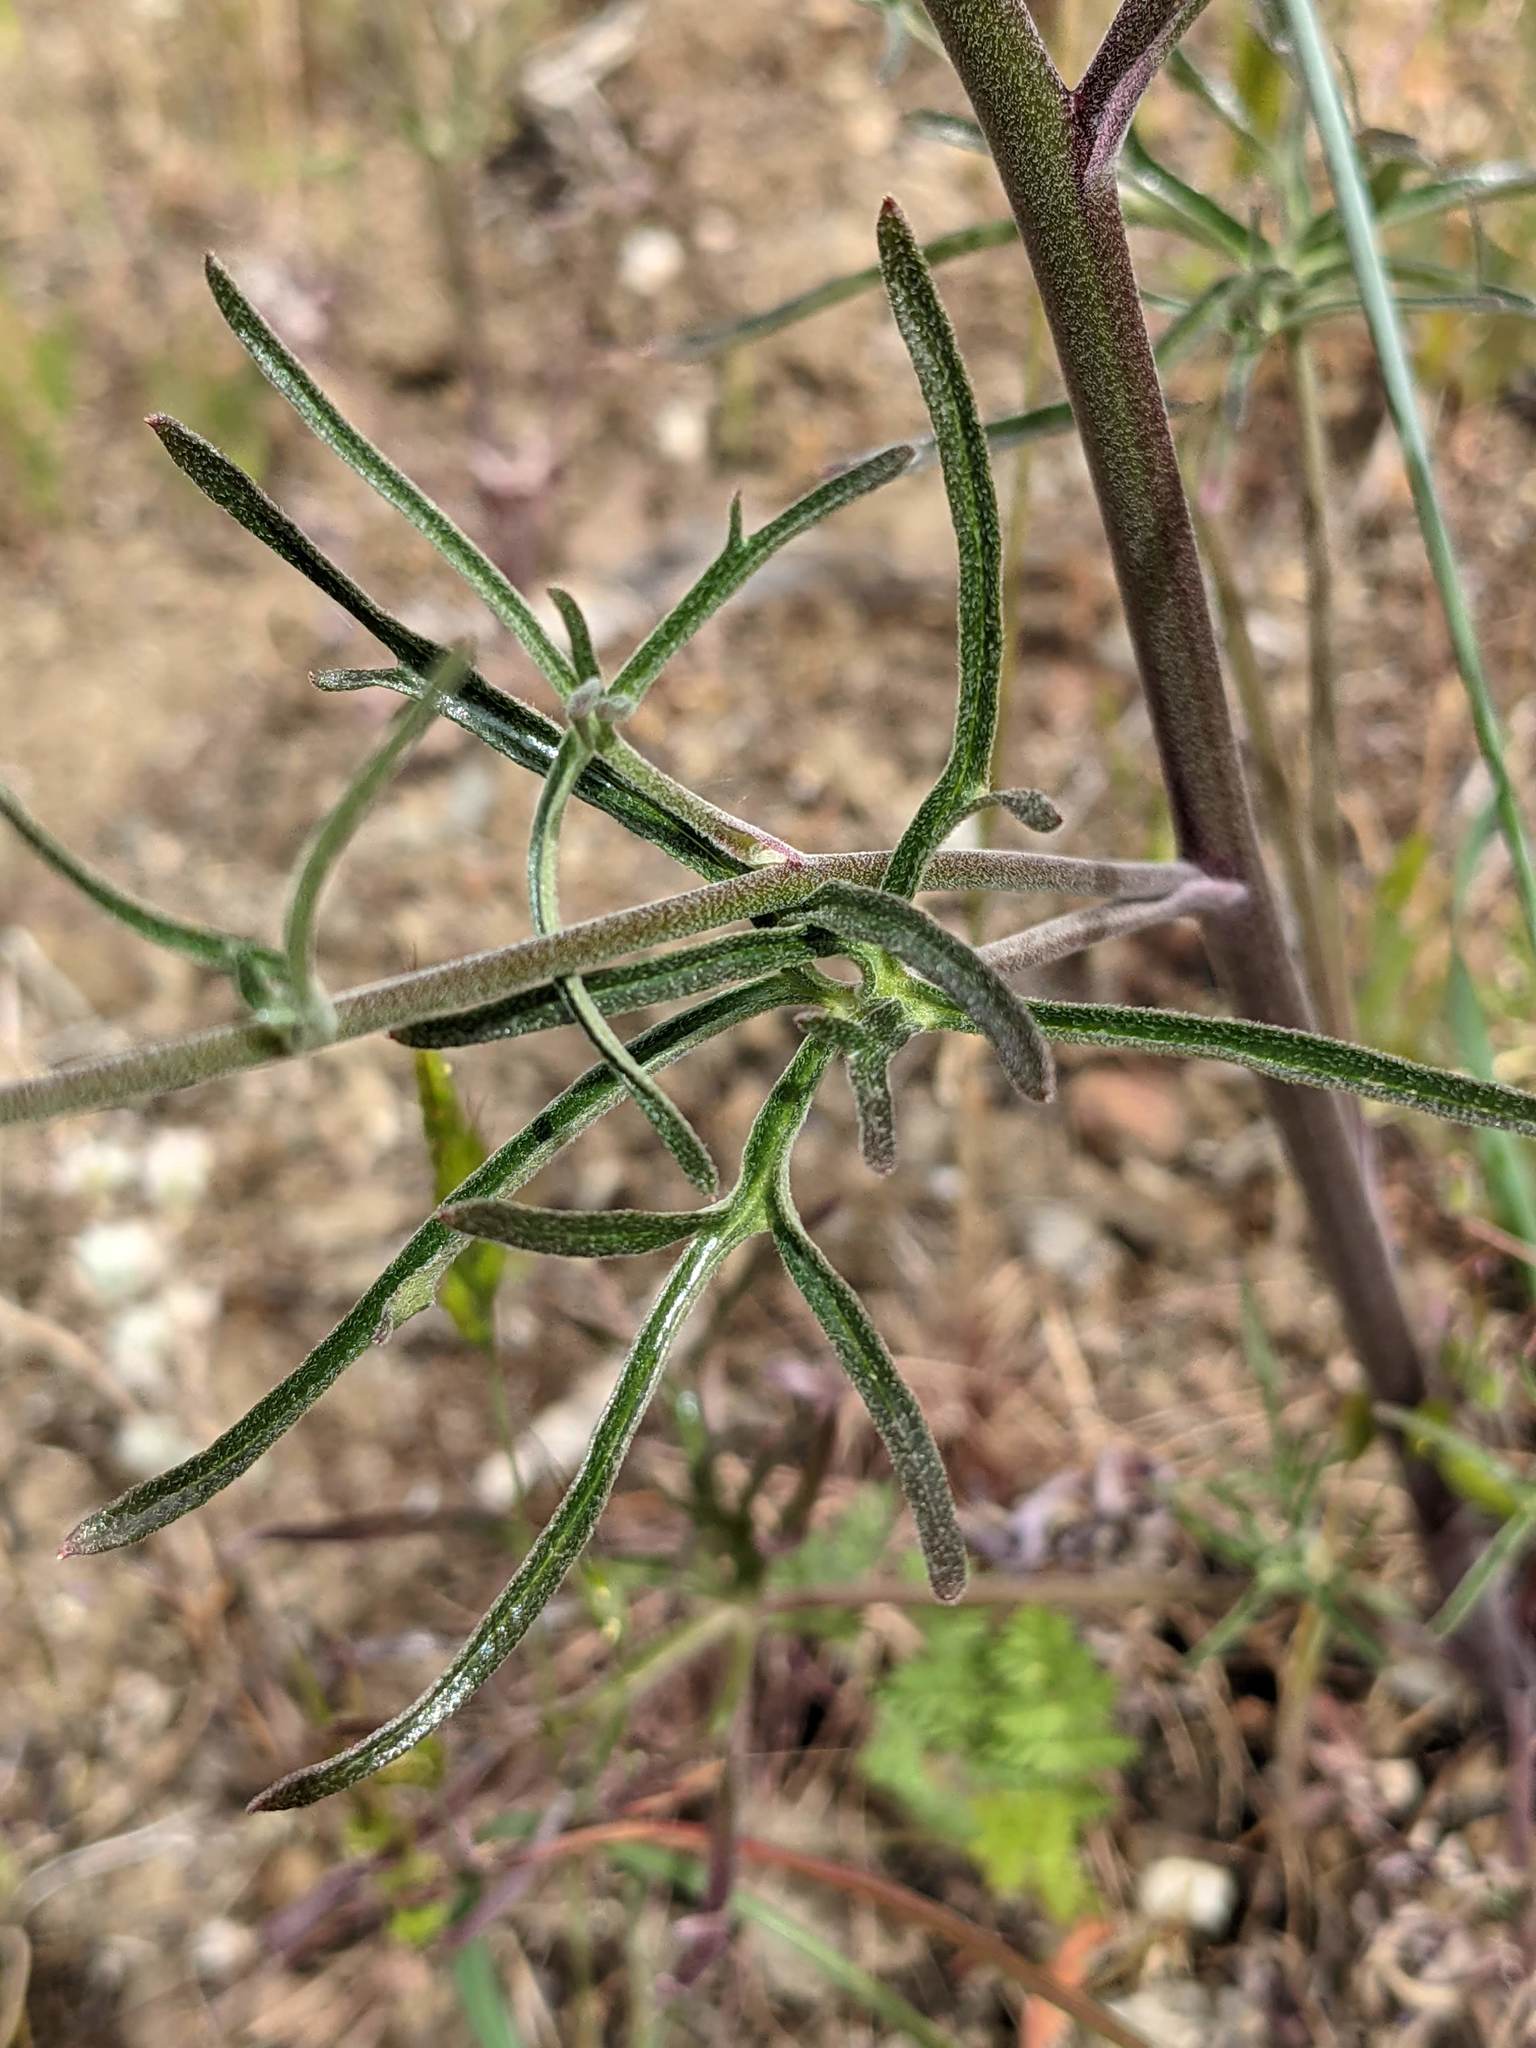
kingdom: Plantae
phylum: Tracheophyta
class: Magnoliopsida
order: Ranunculales
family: Ranunculaceae
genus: Delphinium
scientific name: Delphinium parryi
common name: Parry's larkspur
